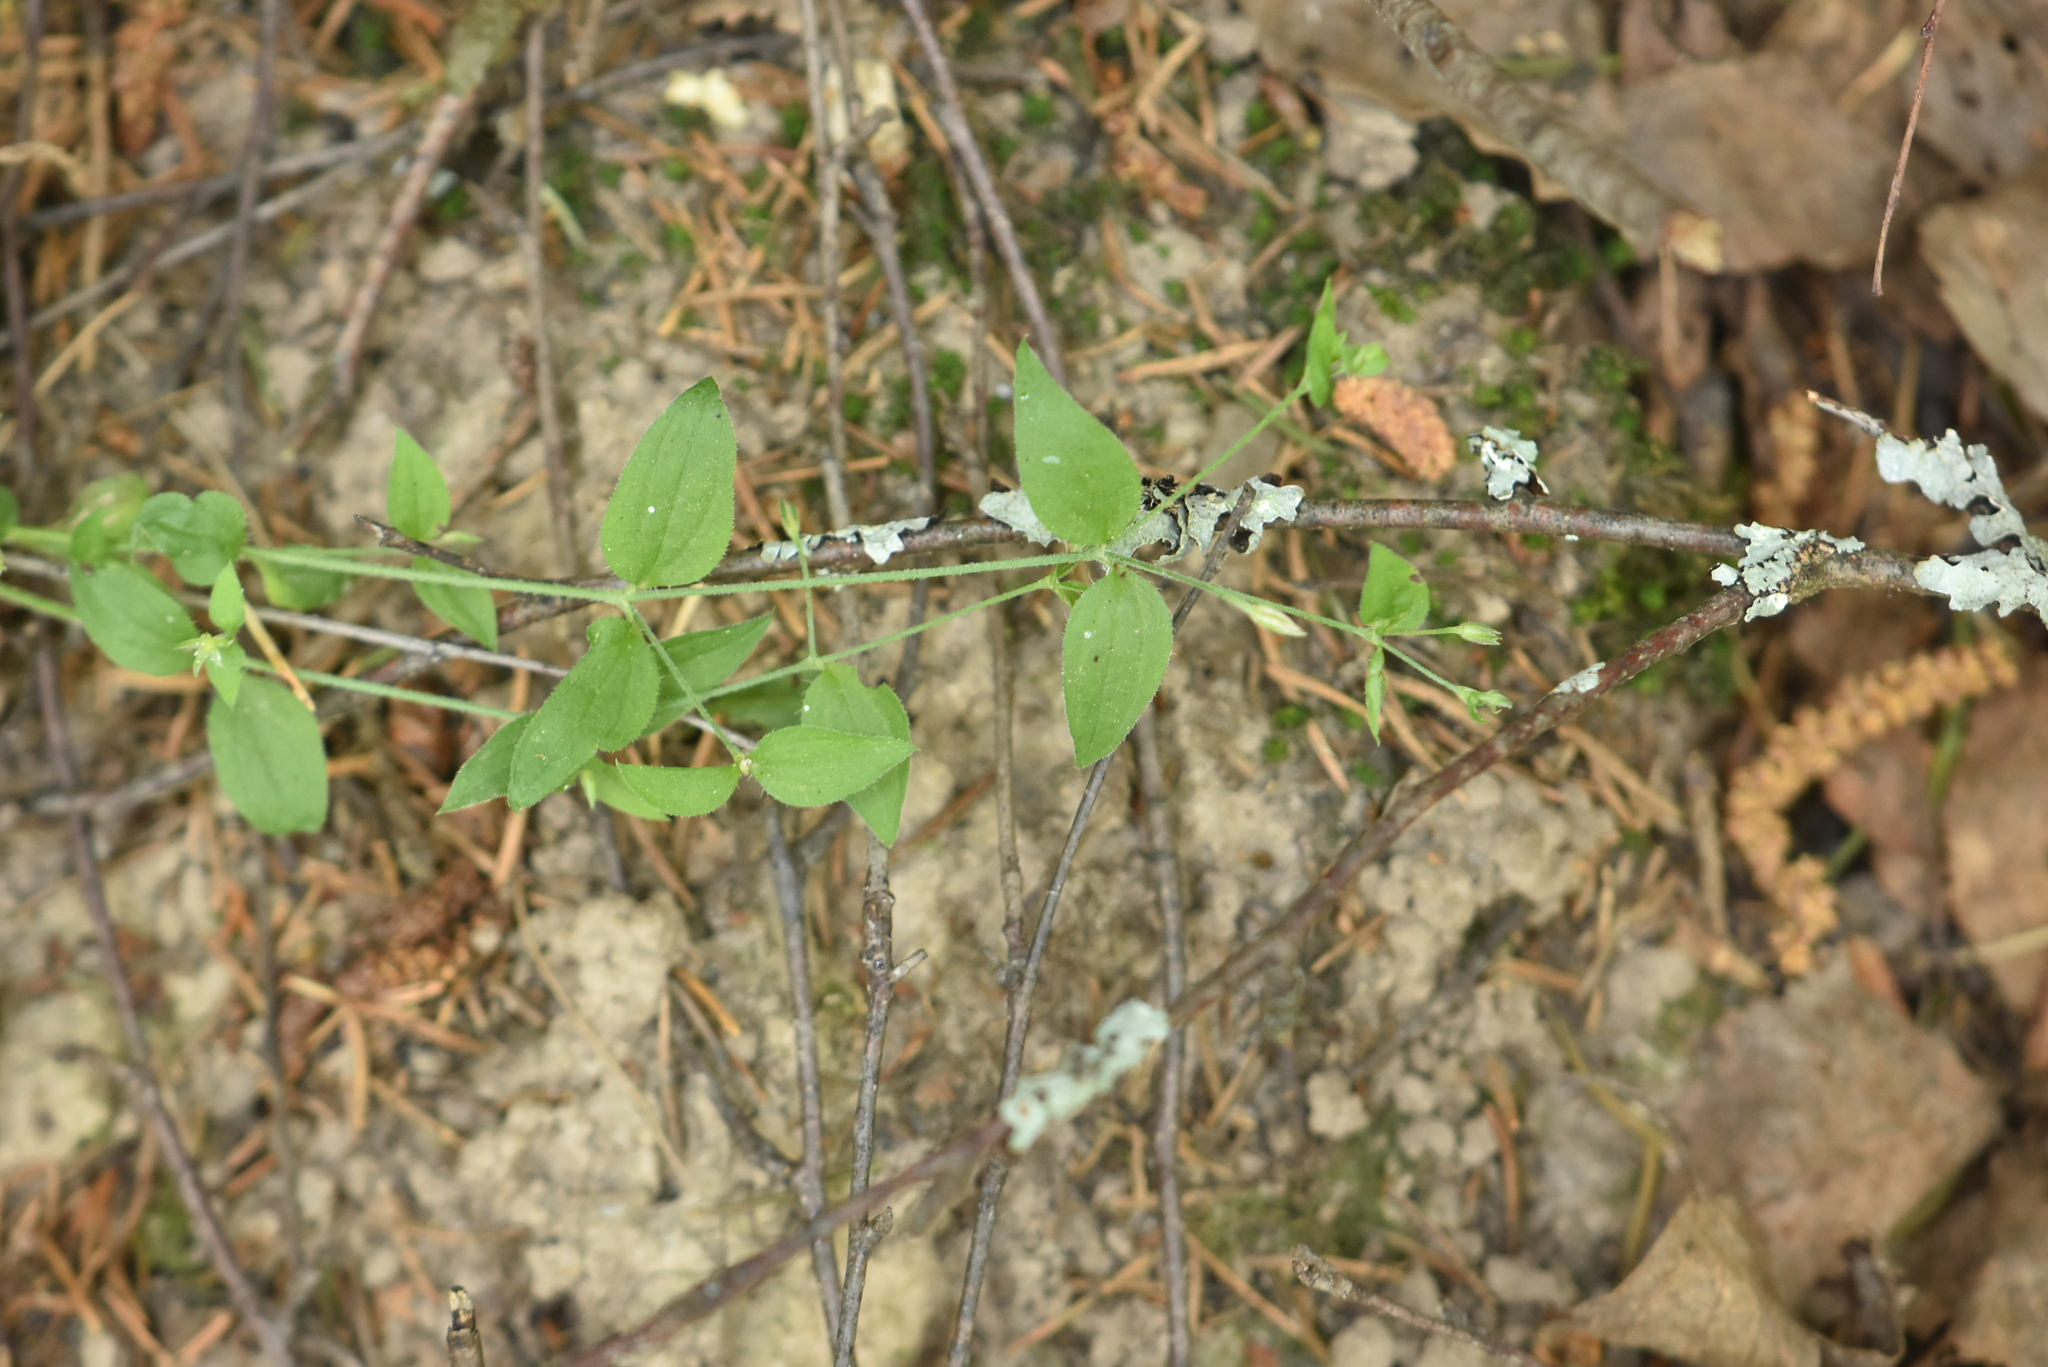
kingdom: Plantae
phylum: Tracheophyta
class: Magnoliopsida
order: Caryophyllales
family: Caryophyllaceae
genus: Moehringia
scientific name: Moehringia trinervia
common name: Three-nerved sandwort
